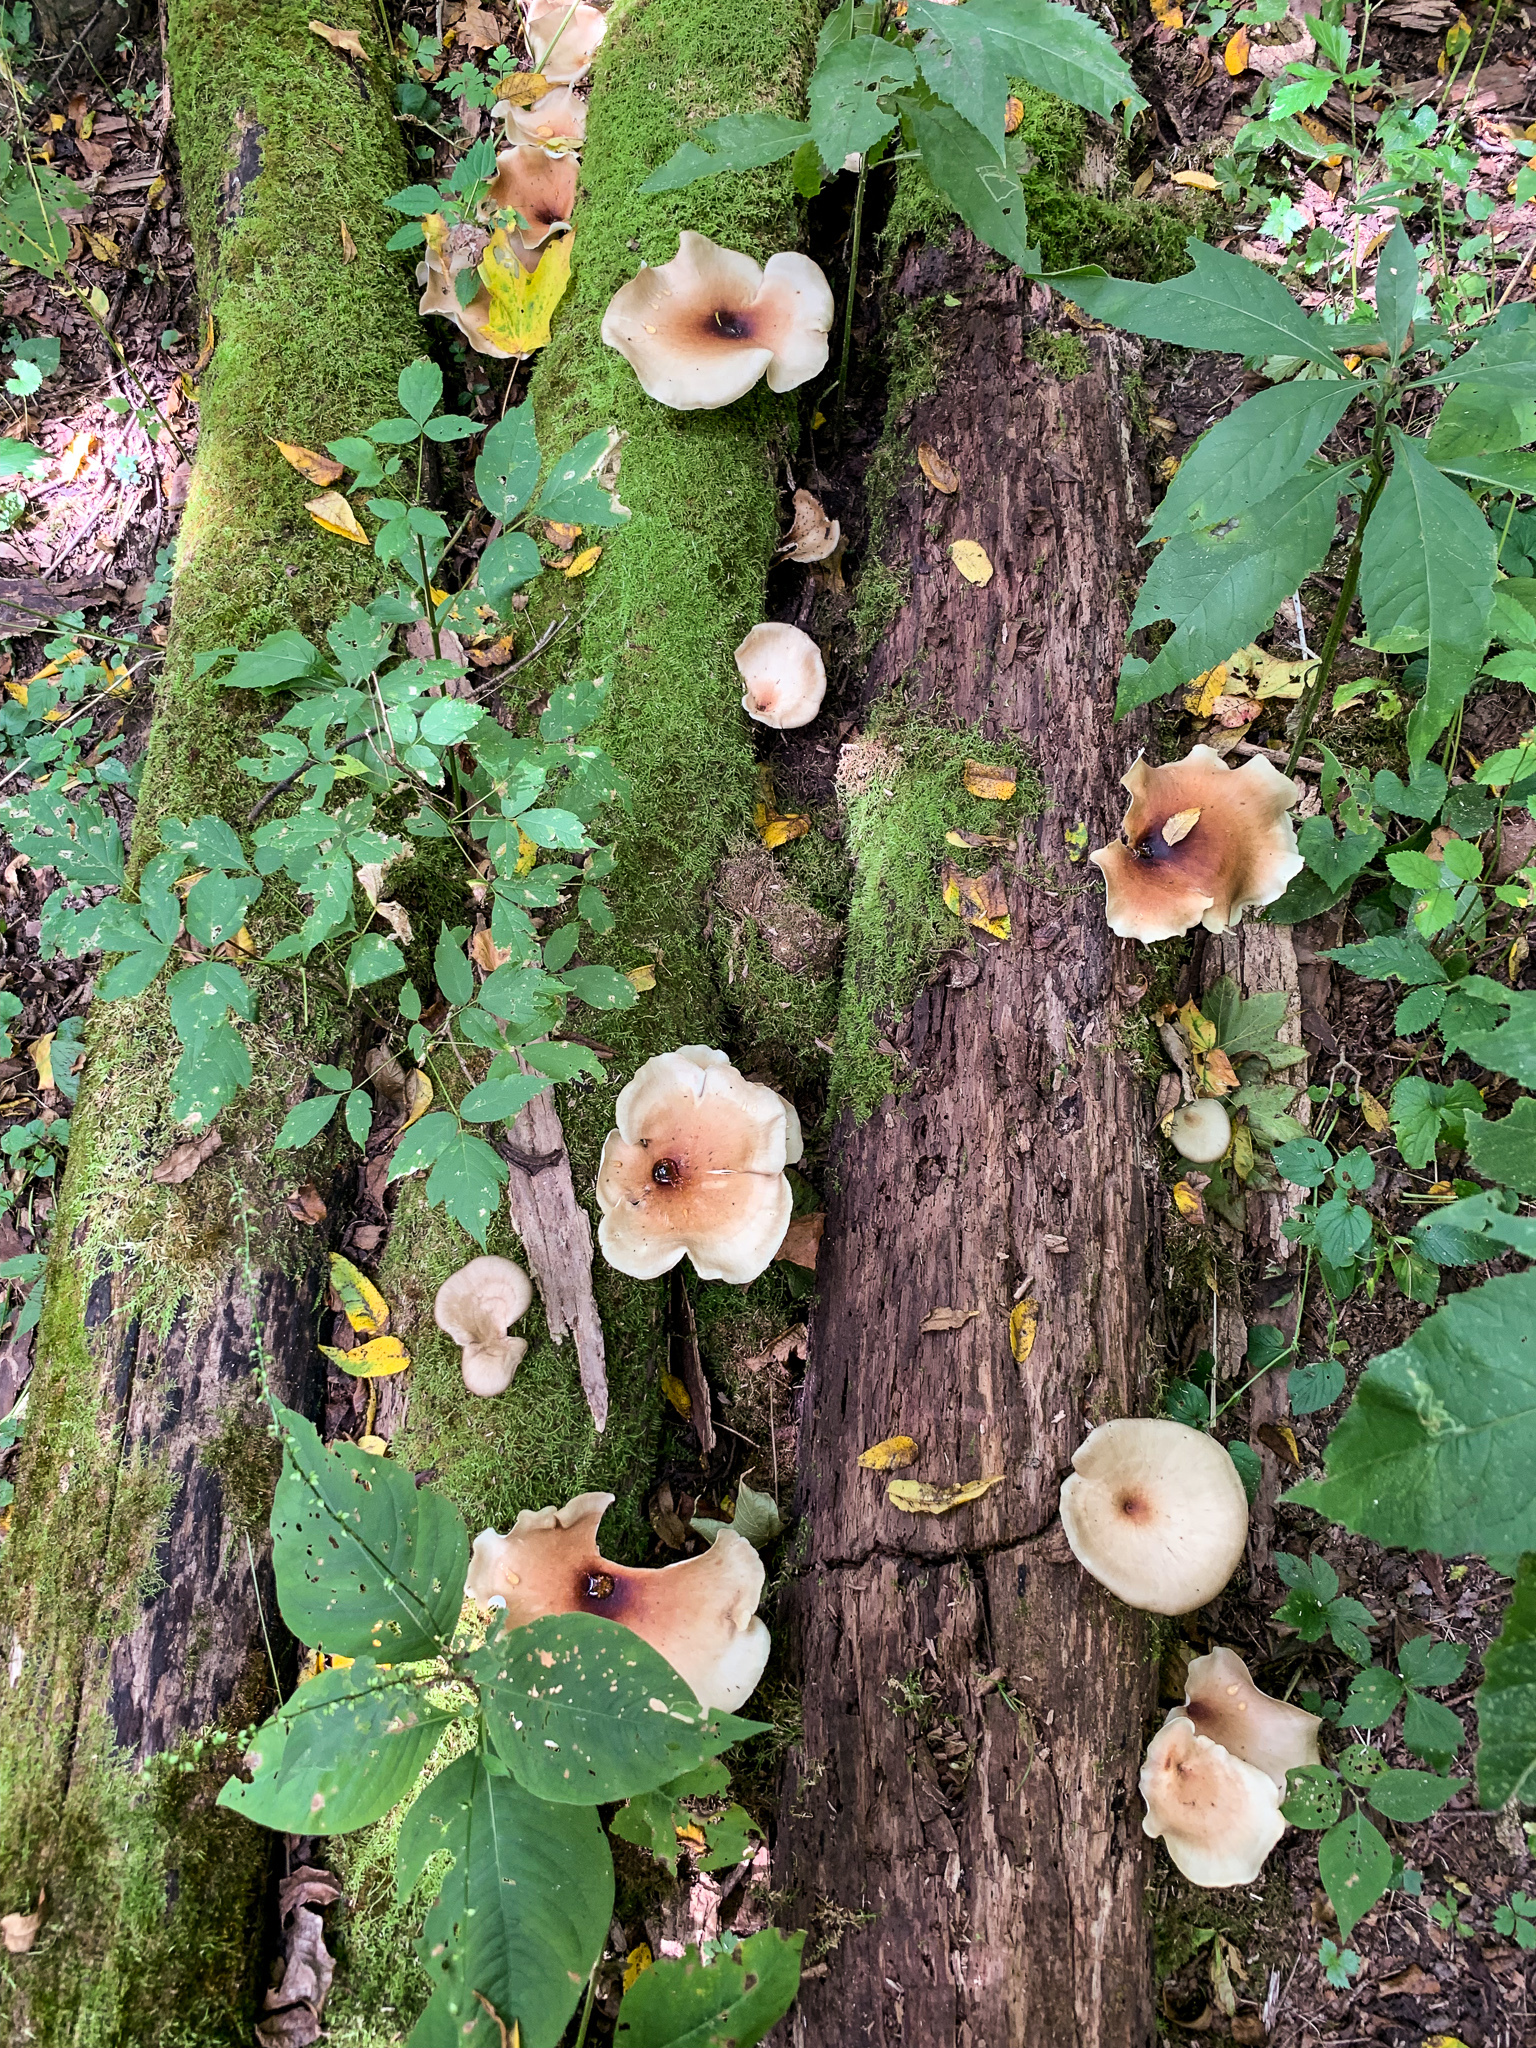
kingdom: Fungi
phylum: Basidiomycota
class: Agaricomycetes
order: Polyporales
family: Polyporaceae
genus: Picipes
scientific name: Picipes badius
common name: Bay polypore
